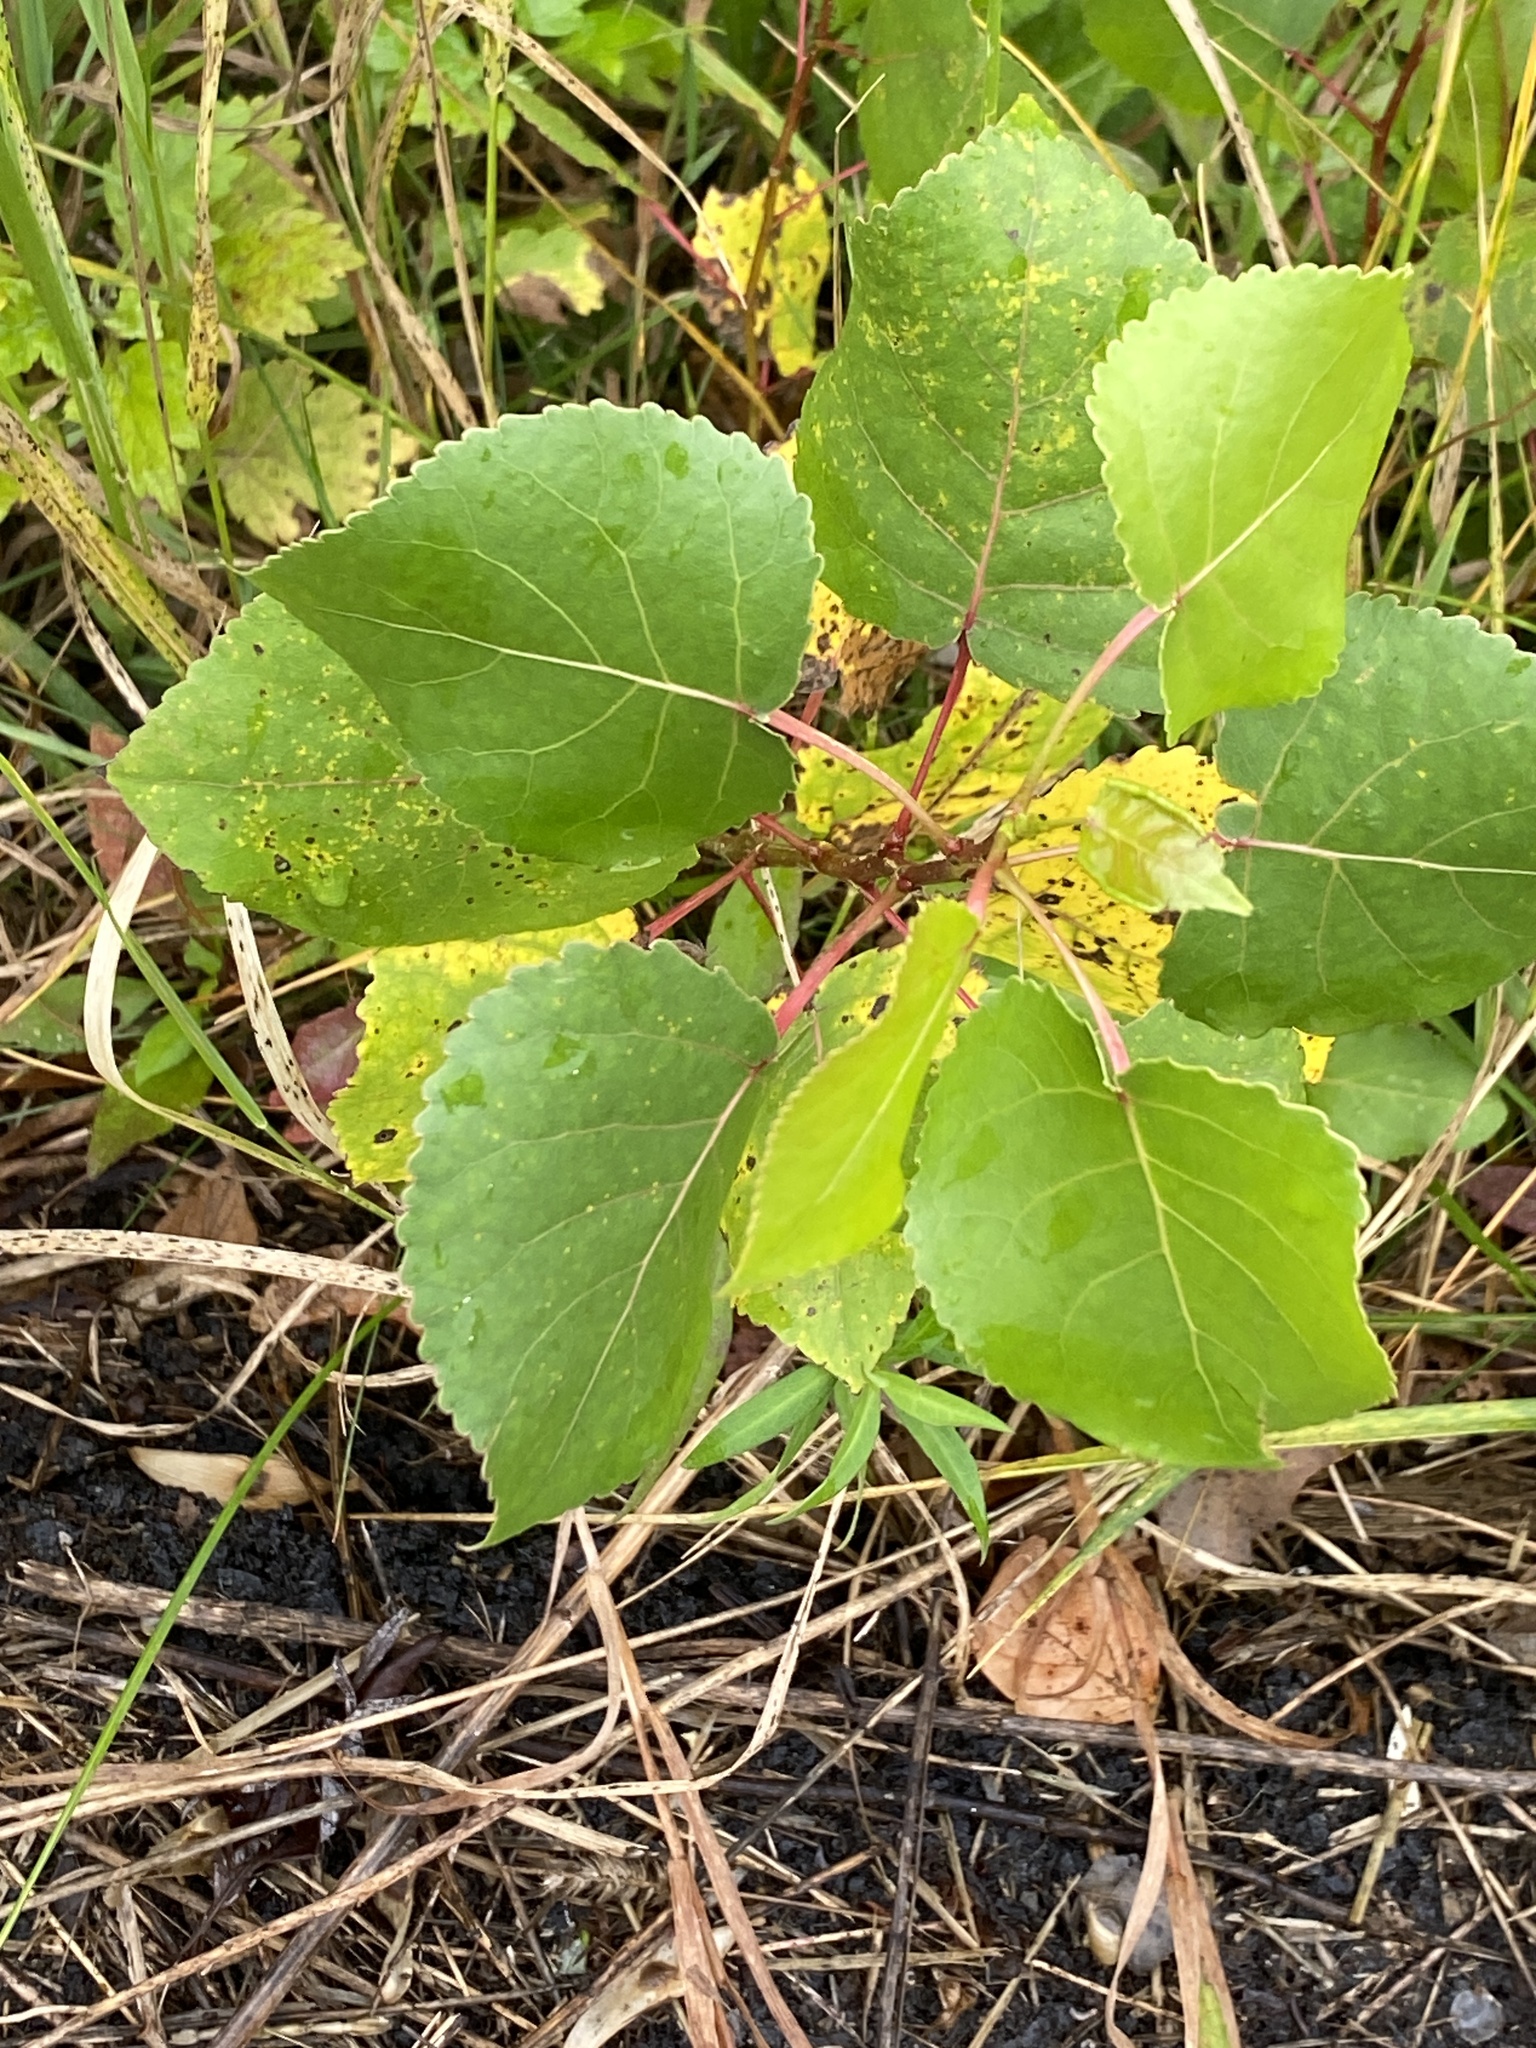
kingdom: Plantae
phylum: Tracheophyta
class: Magnoliopsida
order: Malpighiales
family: Salicaceae
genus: Populus
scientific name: Populus deltoides
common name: Eastern cottonwood
